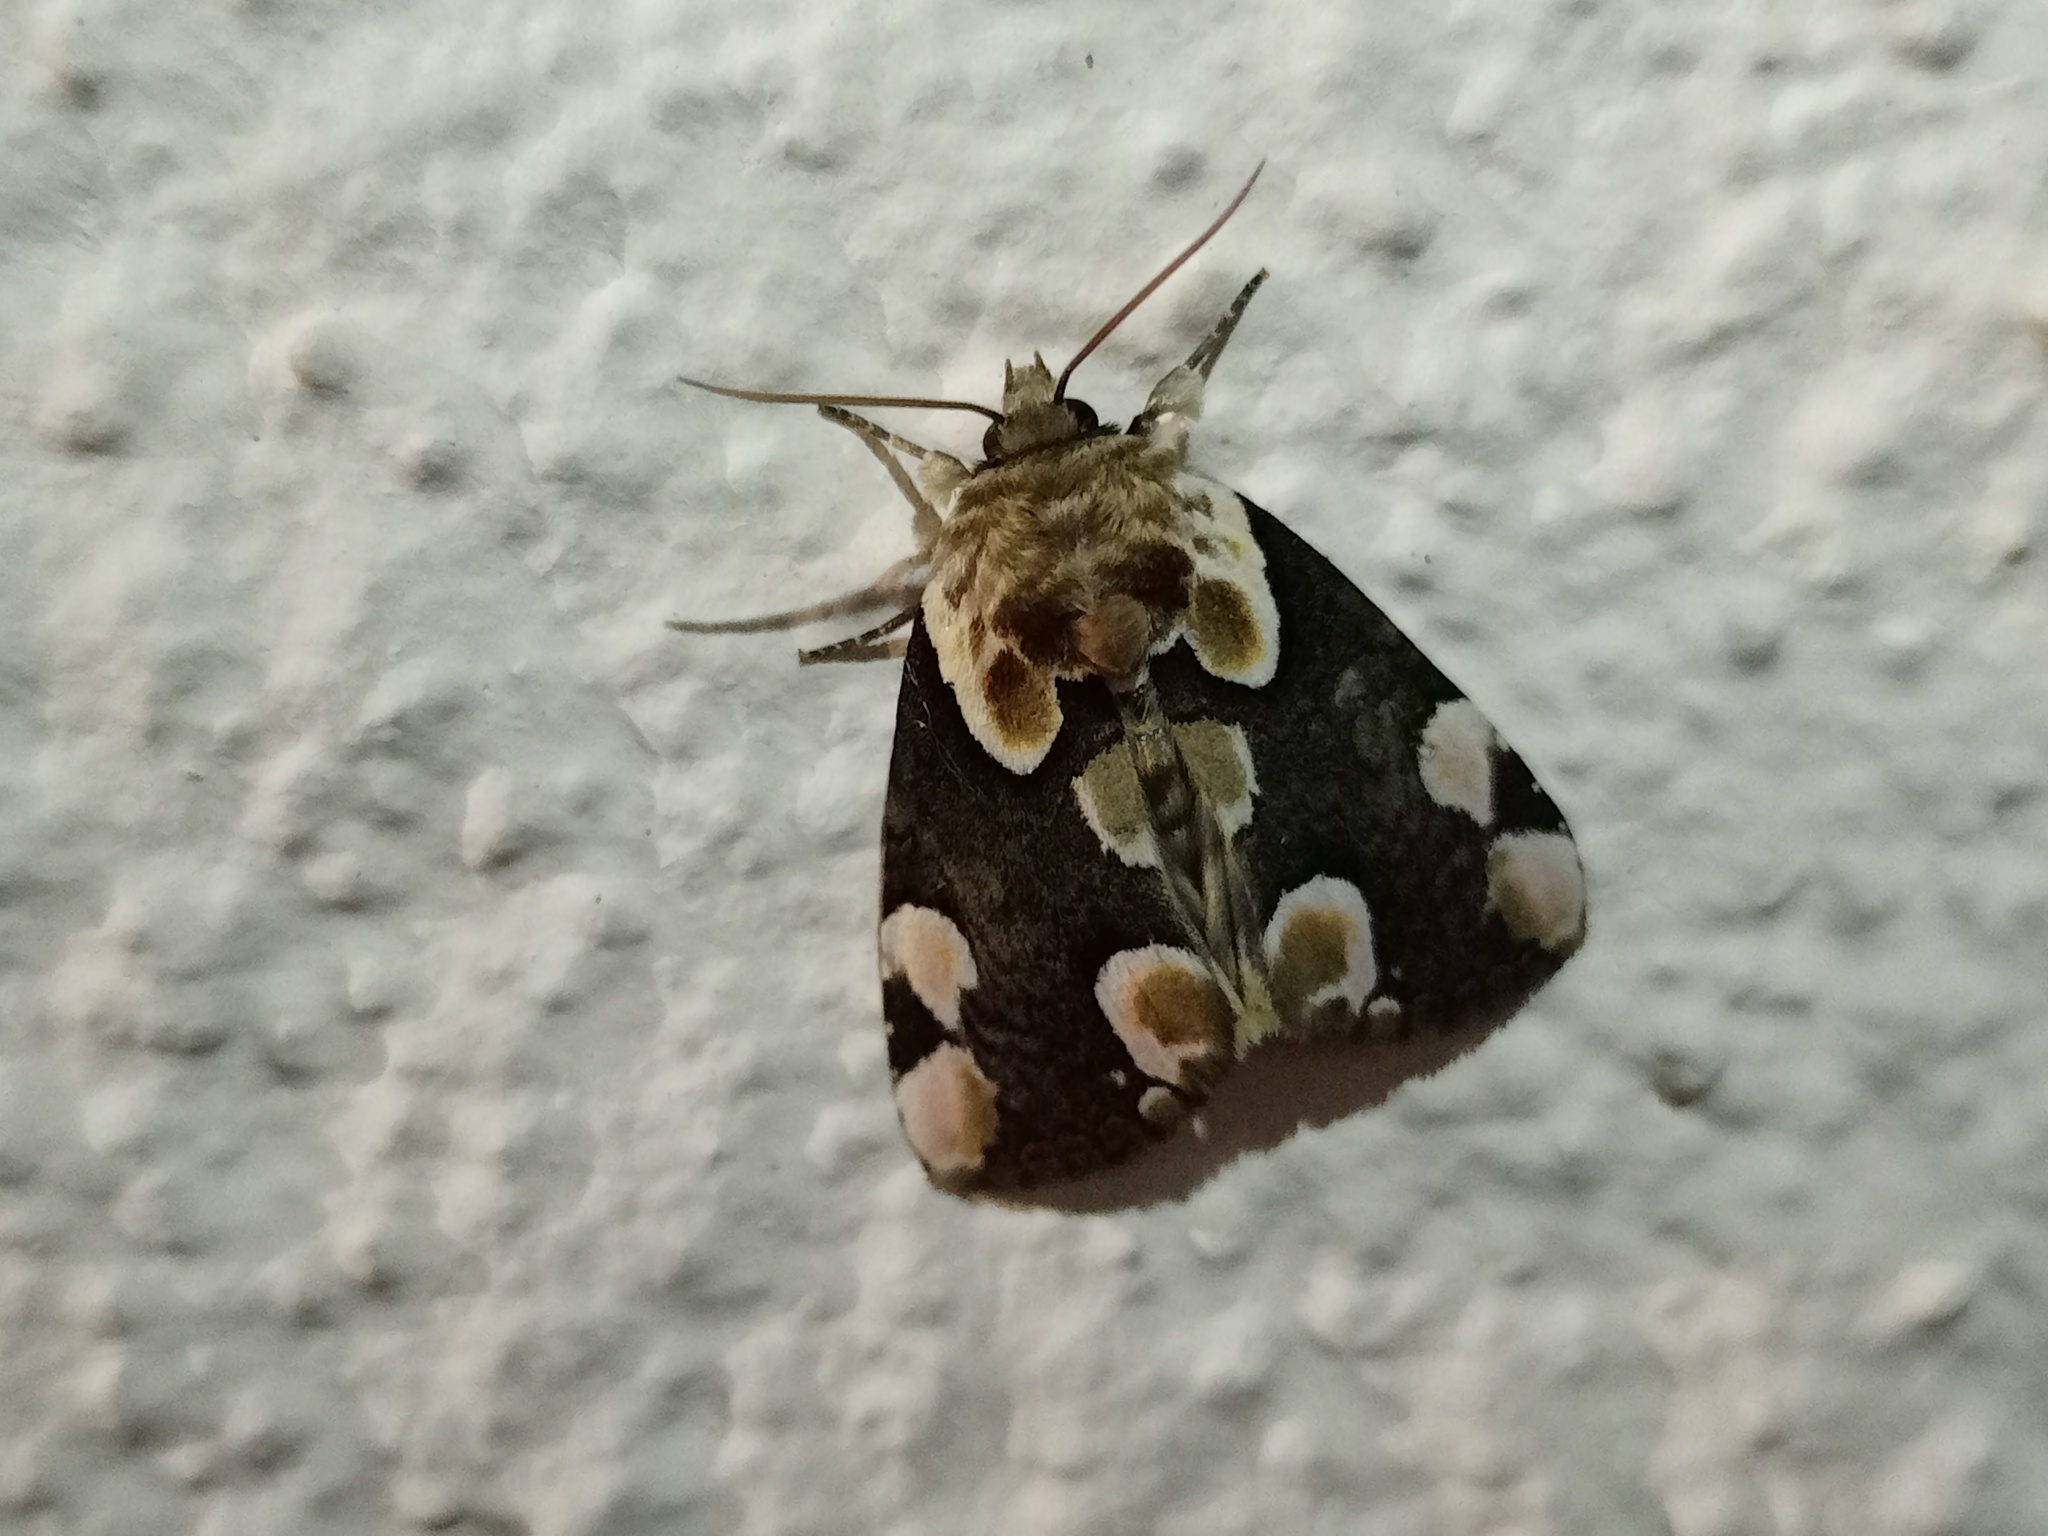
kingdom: Animalia
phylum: Arthropoda
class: Insecta
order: Lepidoptera
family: Drepanidae
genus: Thyatira
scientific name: Thyatira batis
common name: Peach blossom
